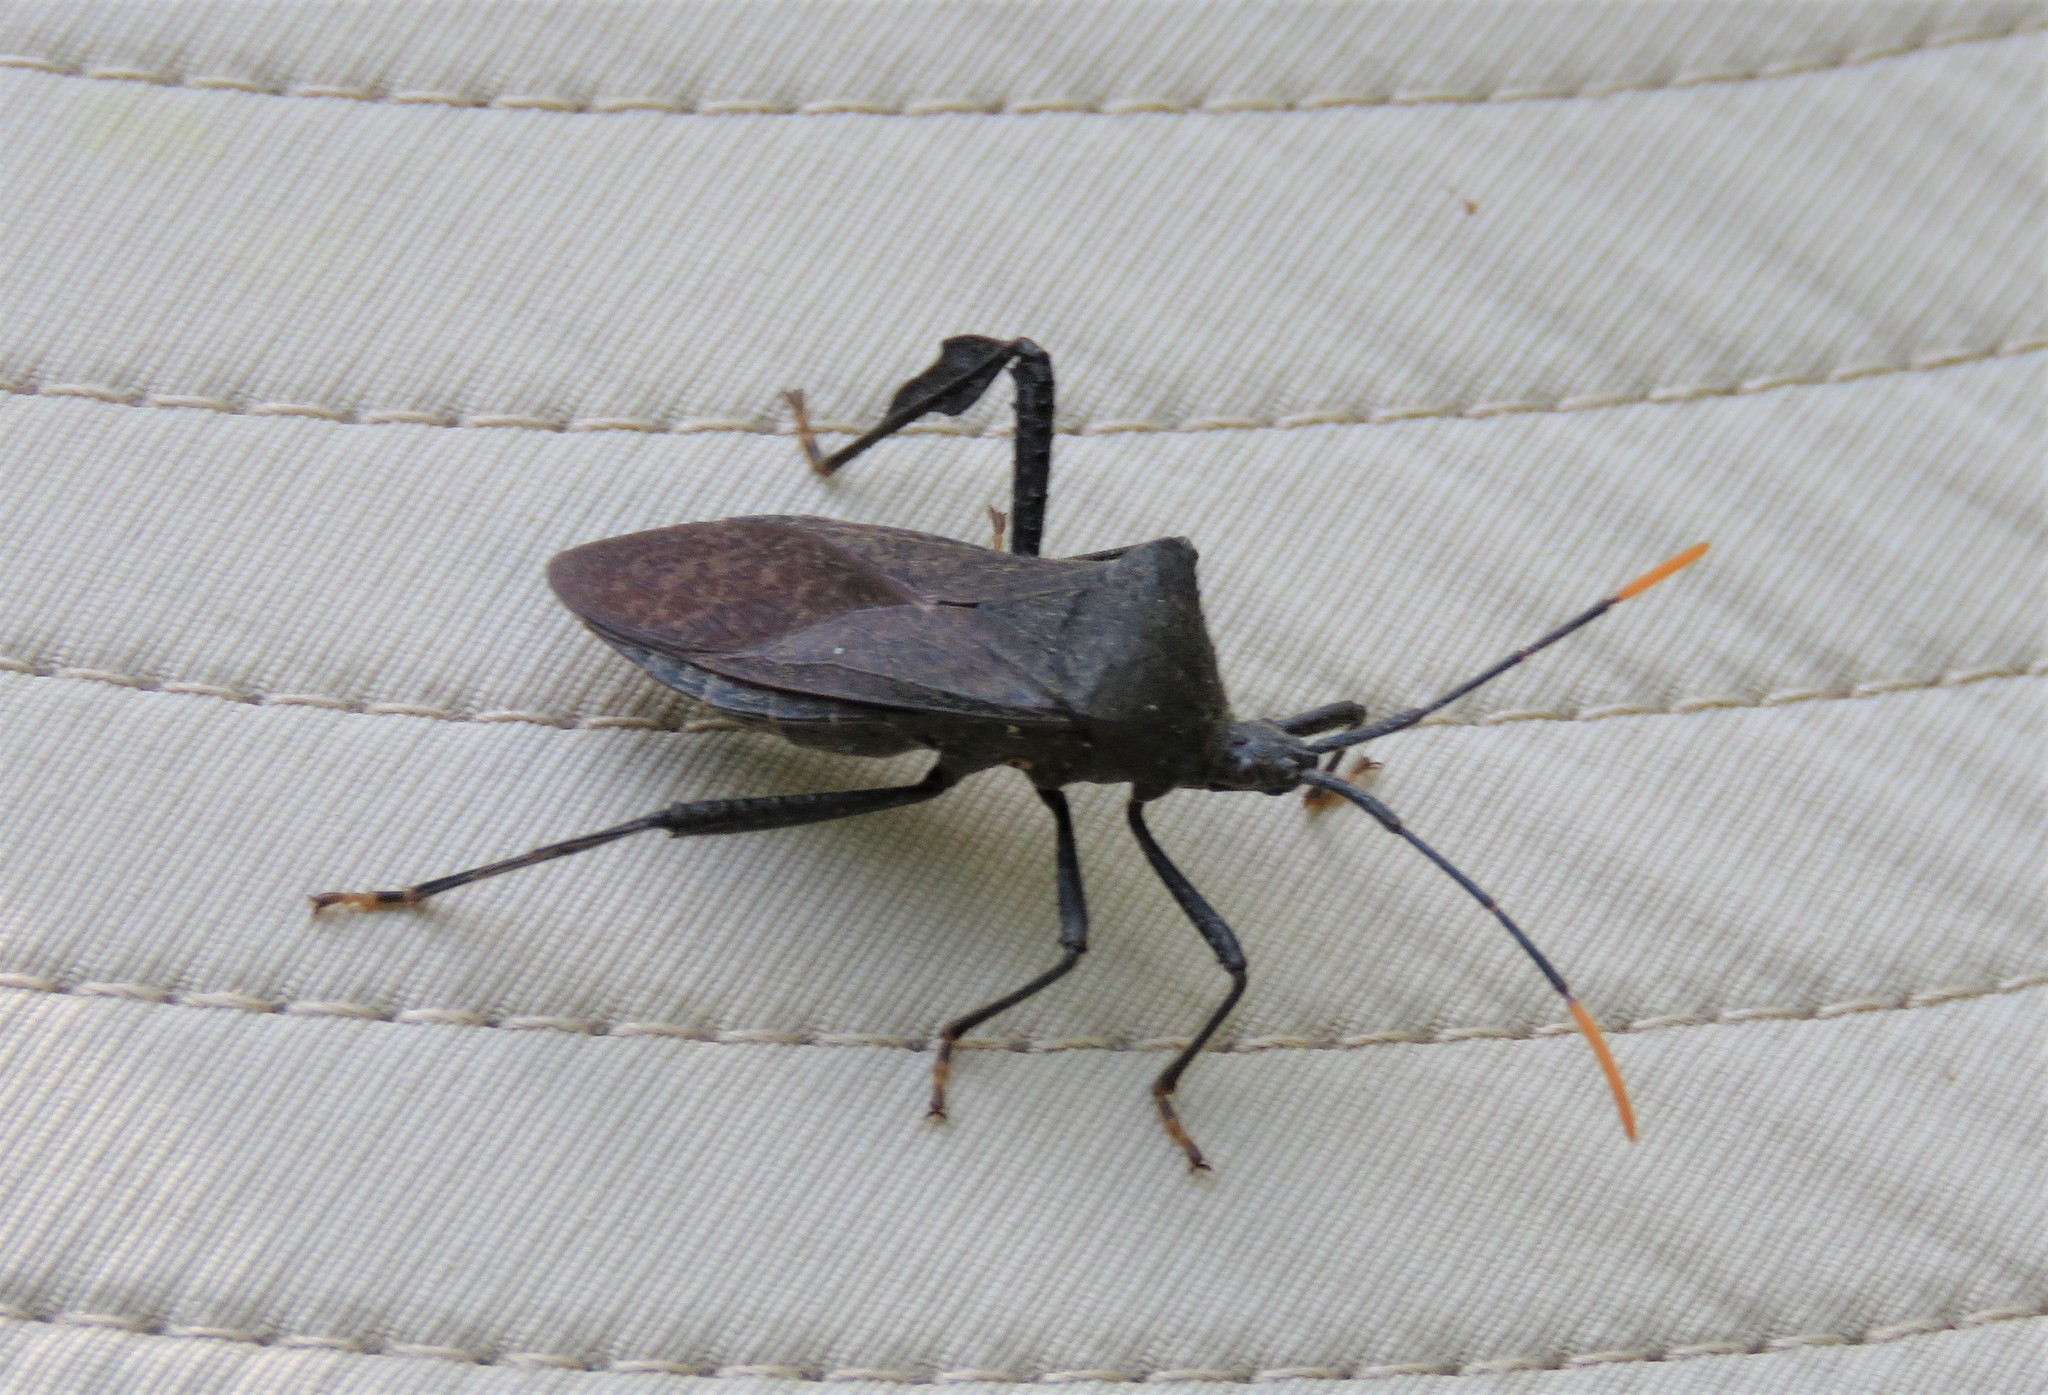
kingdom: Animalia
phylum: Arthropoda
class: Insecta
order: Hemiptera
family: Coreidae
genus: Acanthocephala
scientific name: Acanthocephala terminalis
